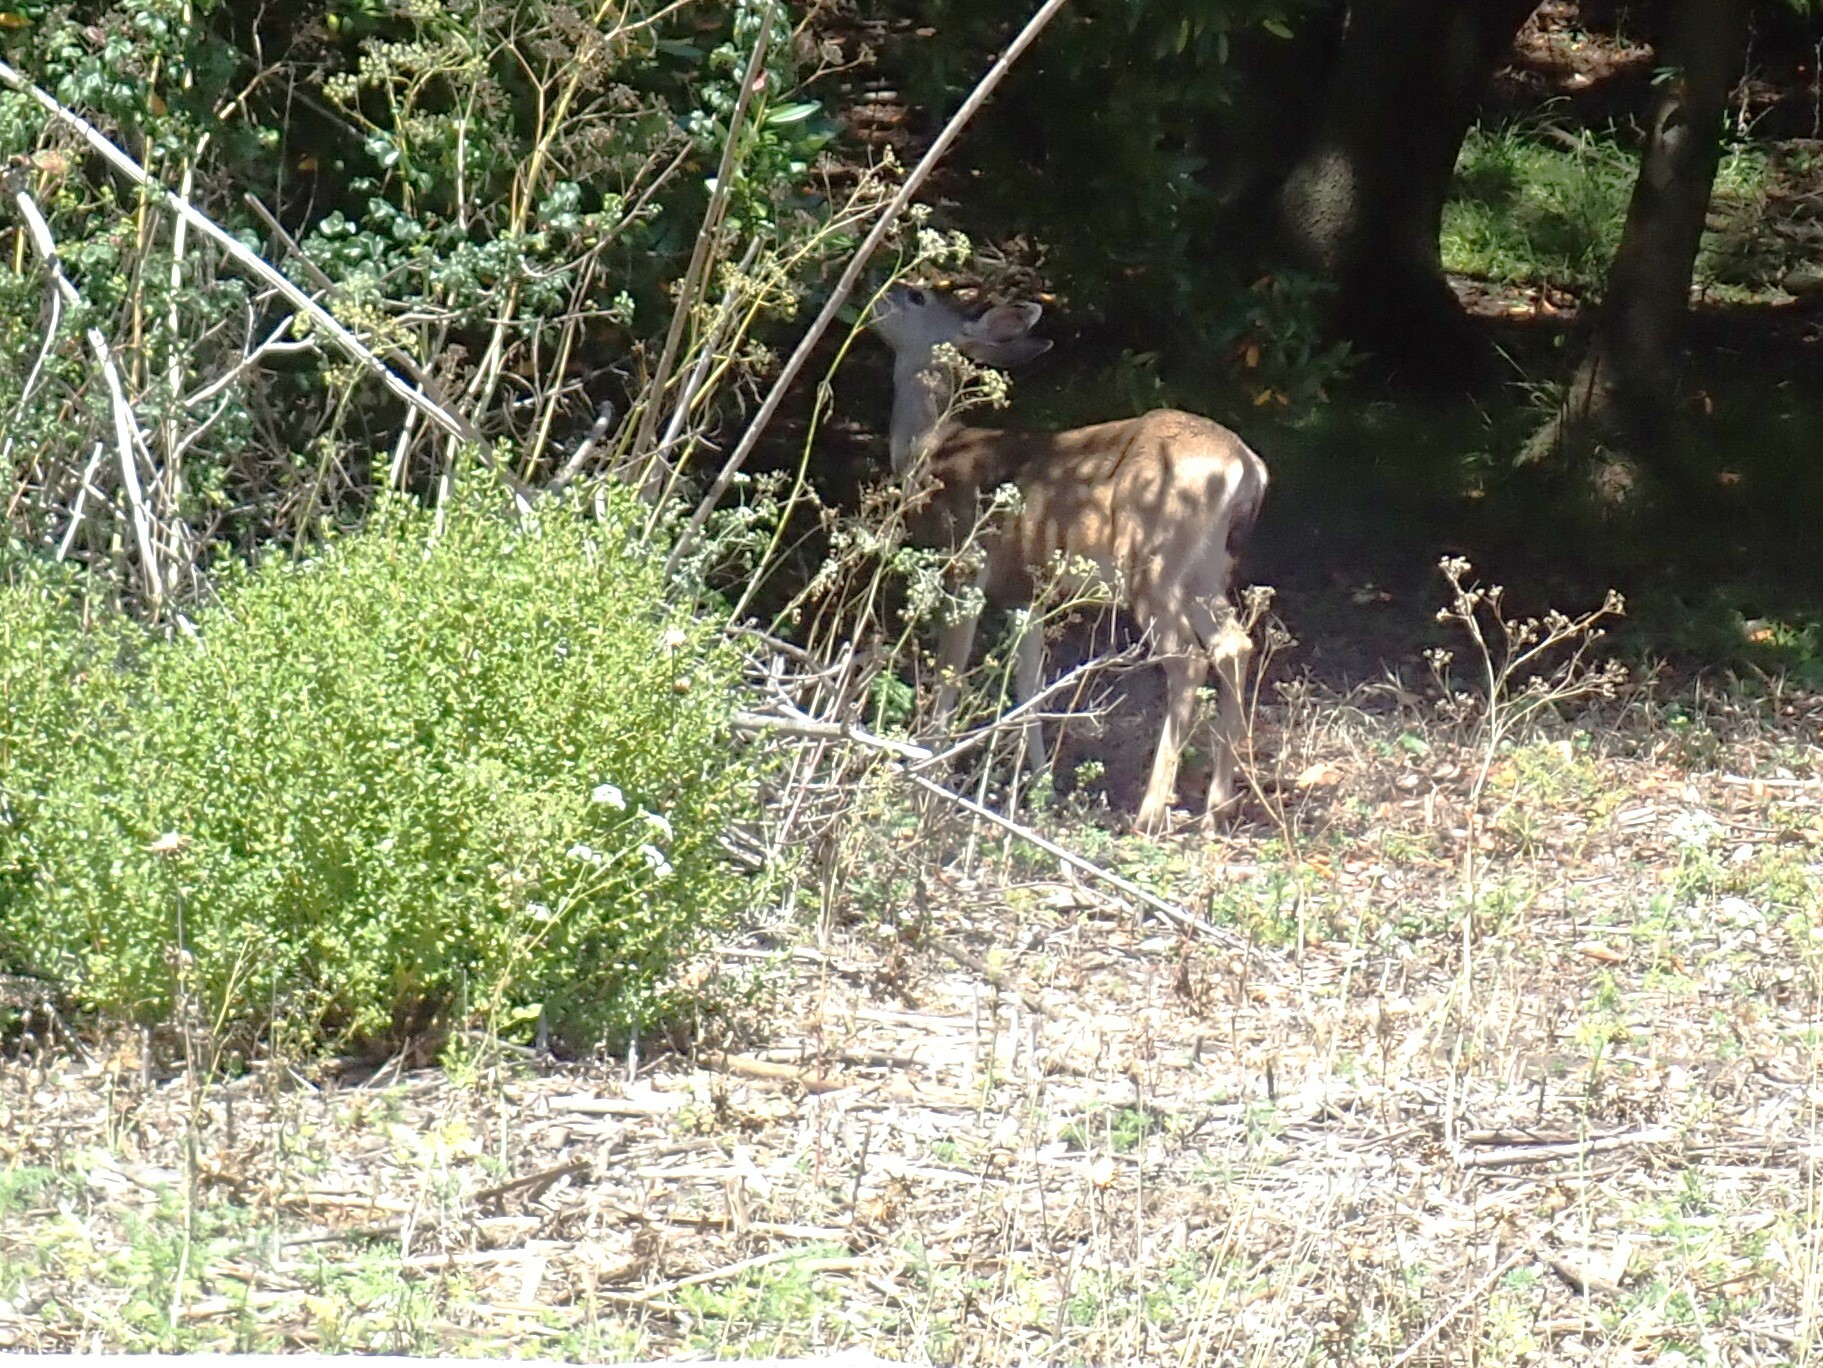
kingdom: Animalia
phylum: Chordata
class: Mammalia
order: Artiodactyla
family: Cervidae
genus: Odocoileus
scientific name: Odocoileus hemionus
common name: Mule deer
